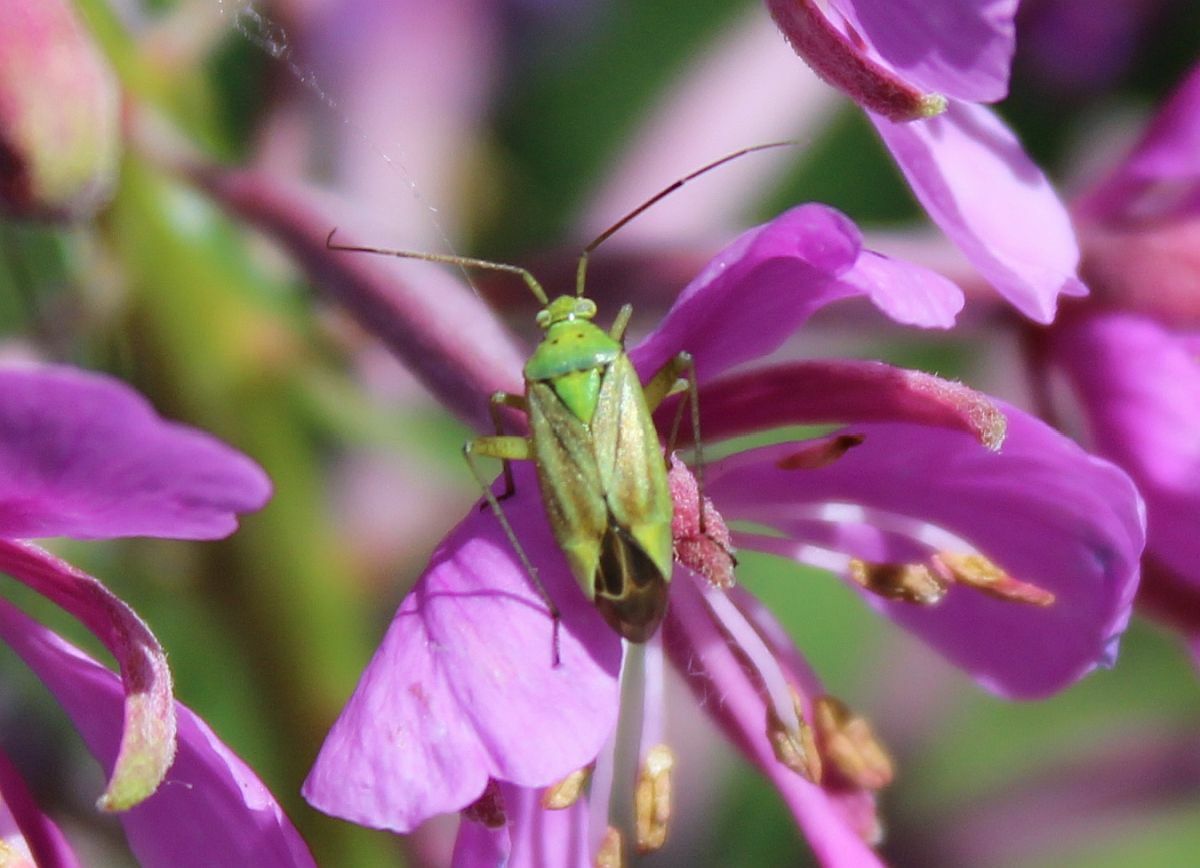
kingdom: Animalia
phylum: Arthropoda
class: Insecta
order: Hemiptera
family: Miridae
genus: Closterotomus
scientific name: Closterotomus norvegicus
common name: Plant bug
